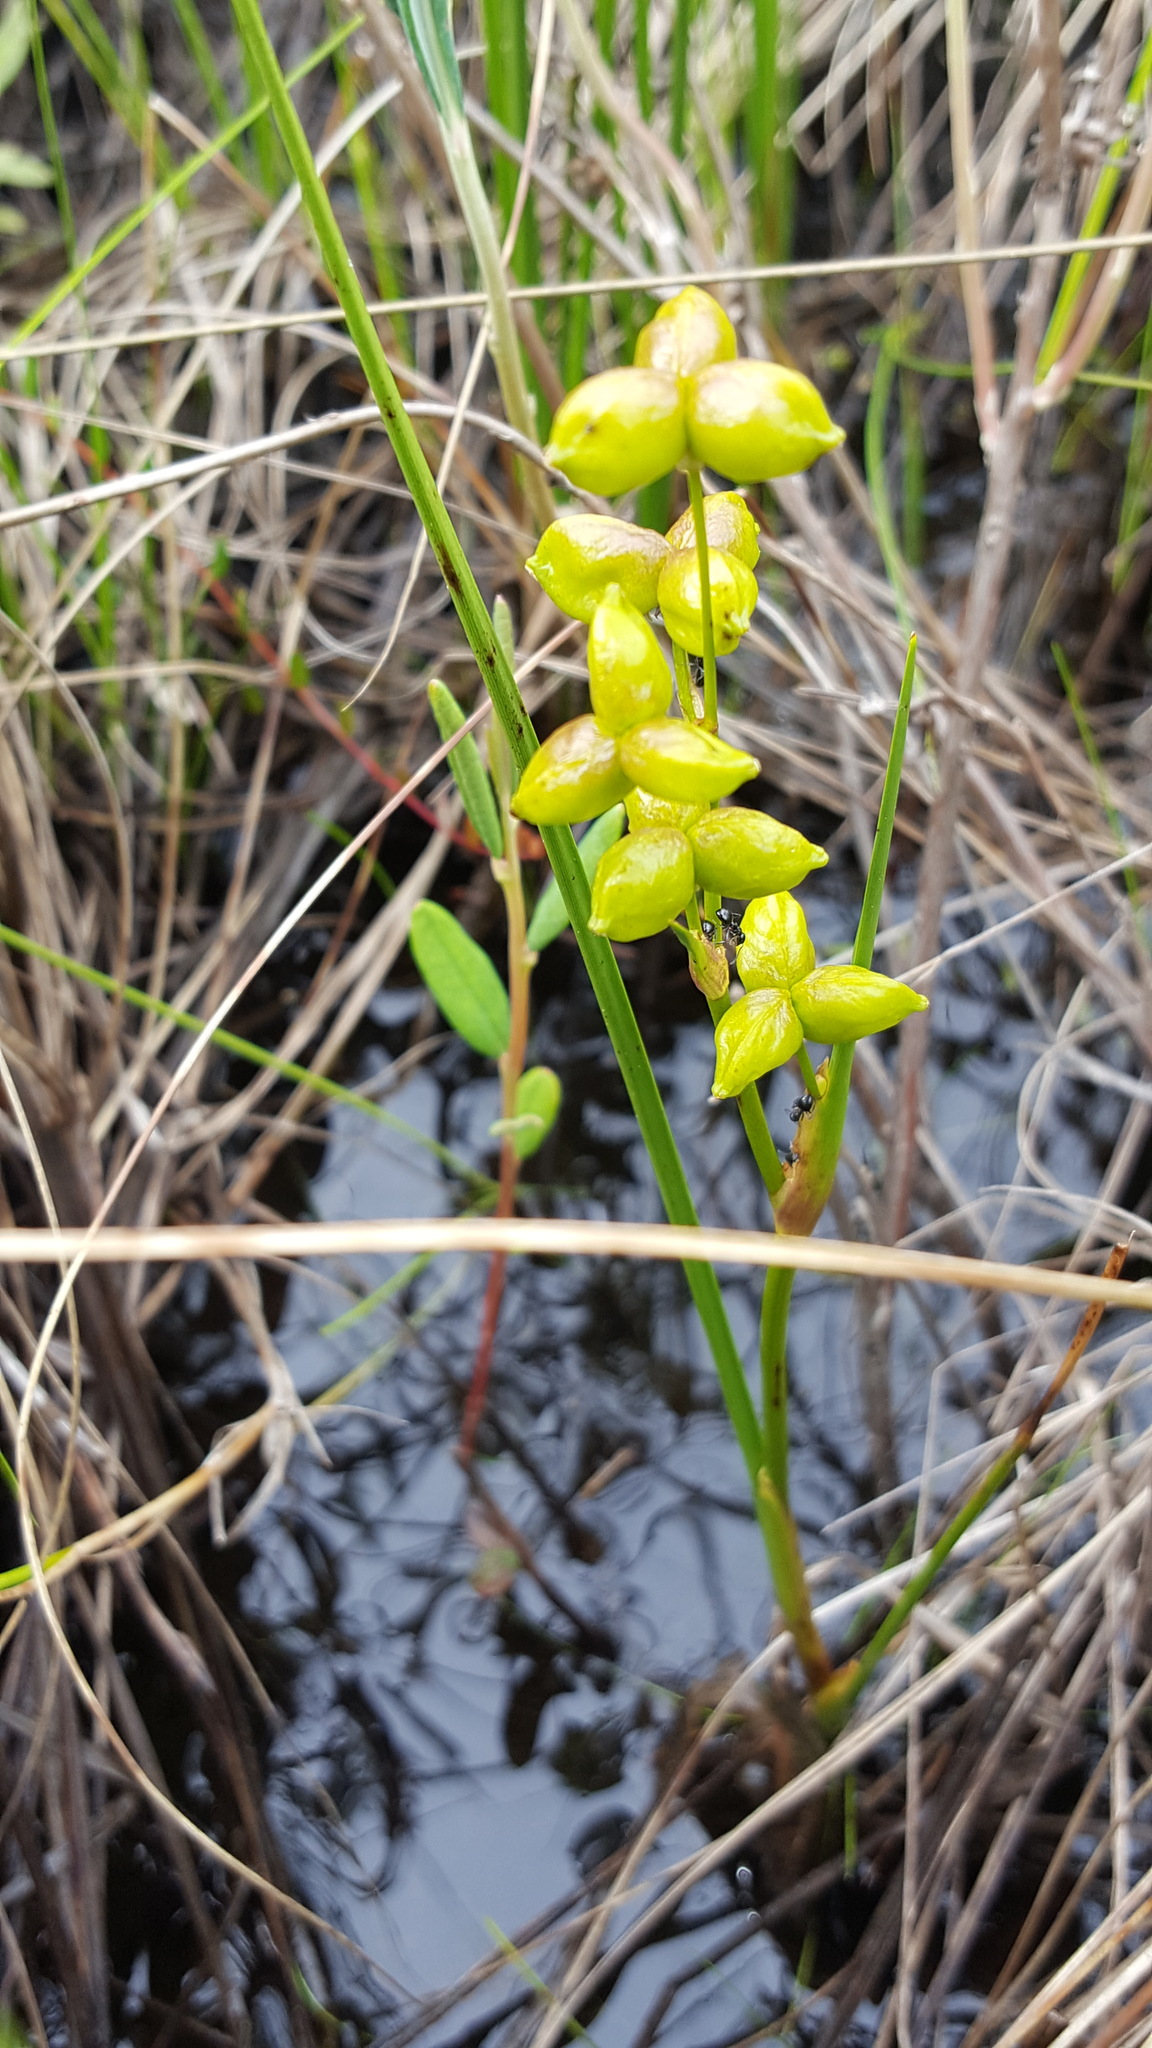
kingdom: Plantae
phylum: Tracheophyta
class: Liliopsida
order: Alismatales
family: Scheuchzeriaceae
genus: Scheuchzeria
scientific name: Scheuchzeria palustris
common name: Rannoch-rush
